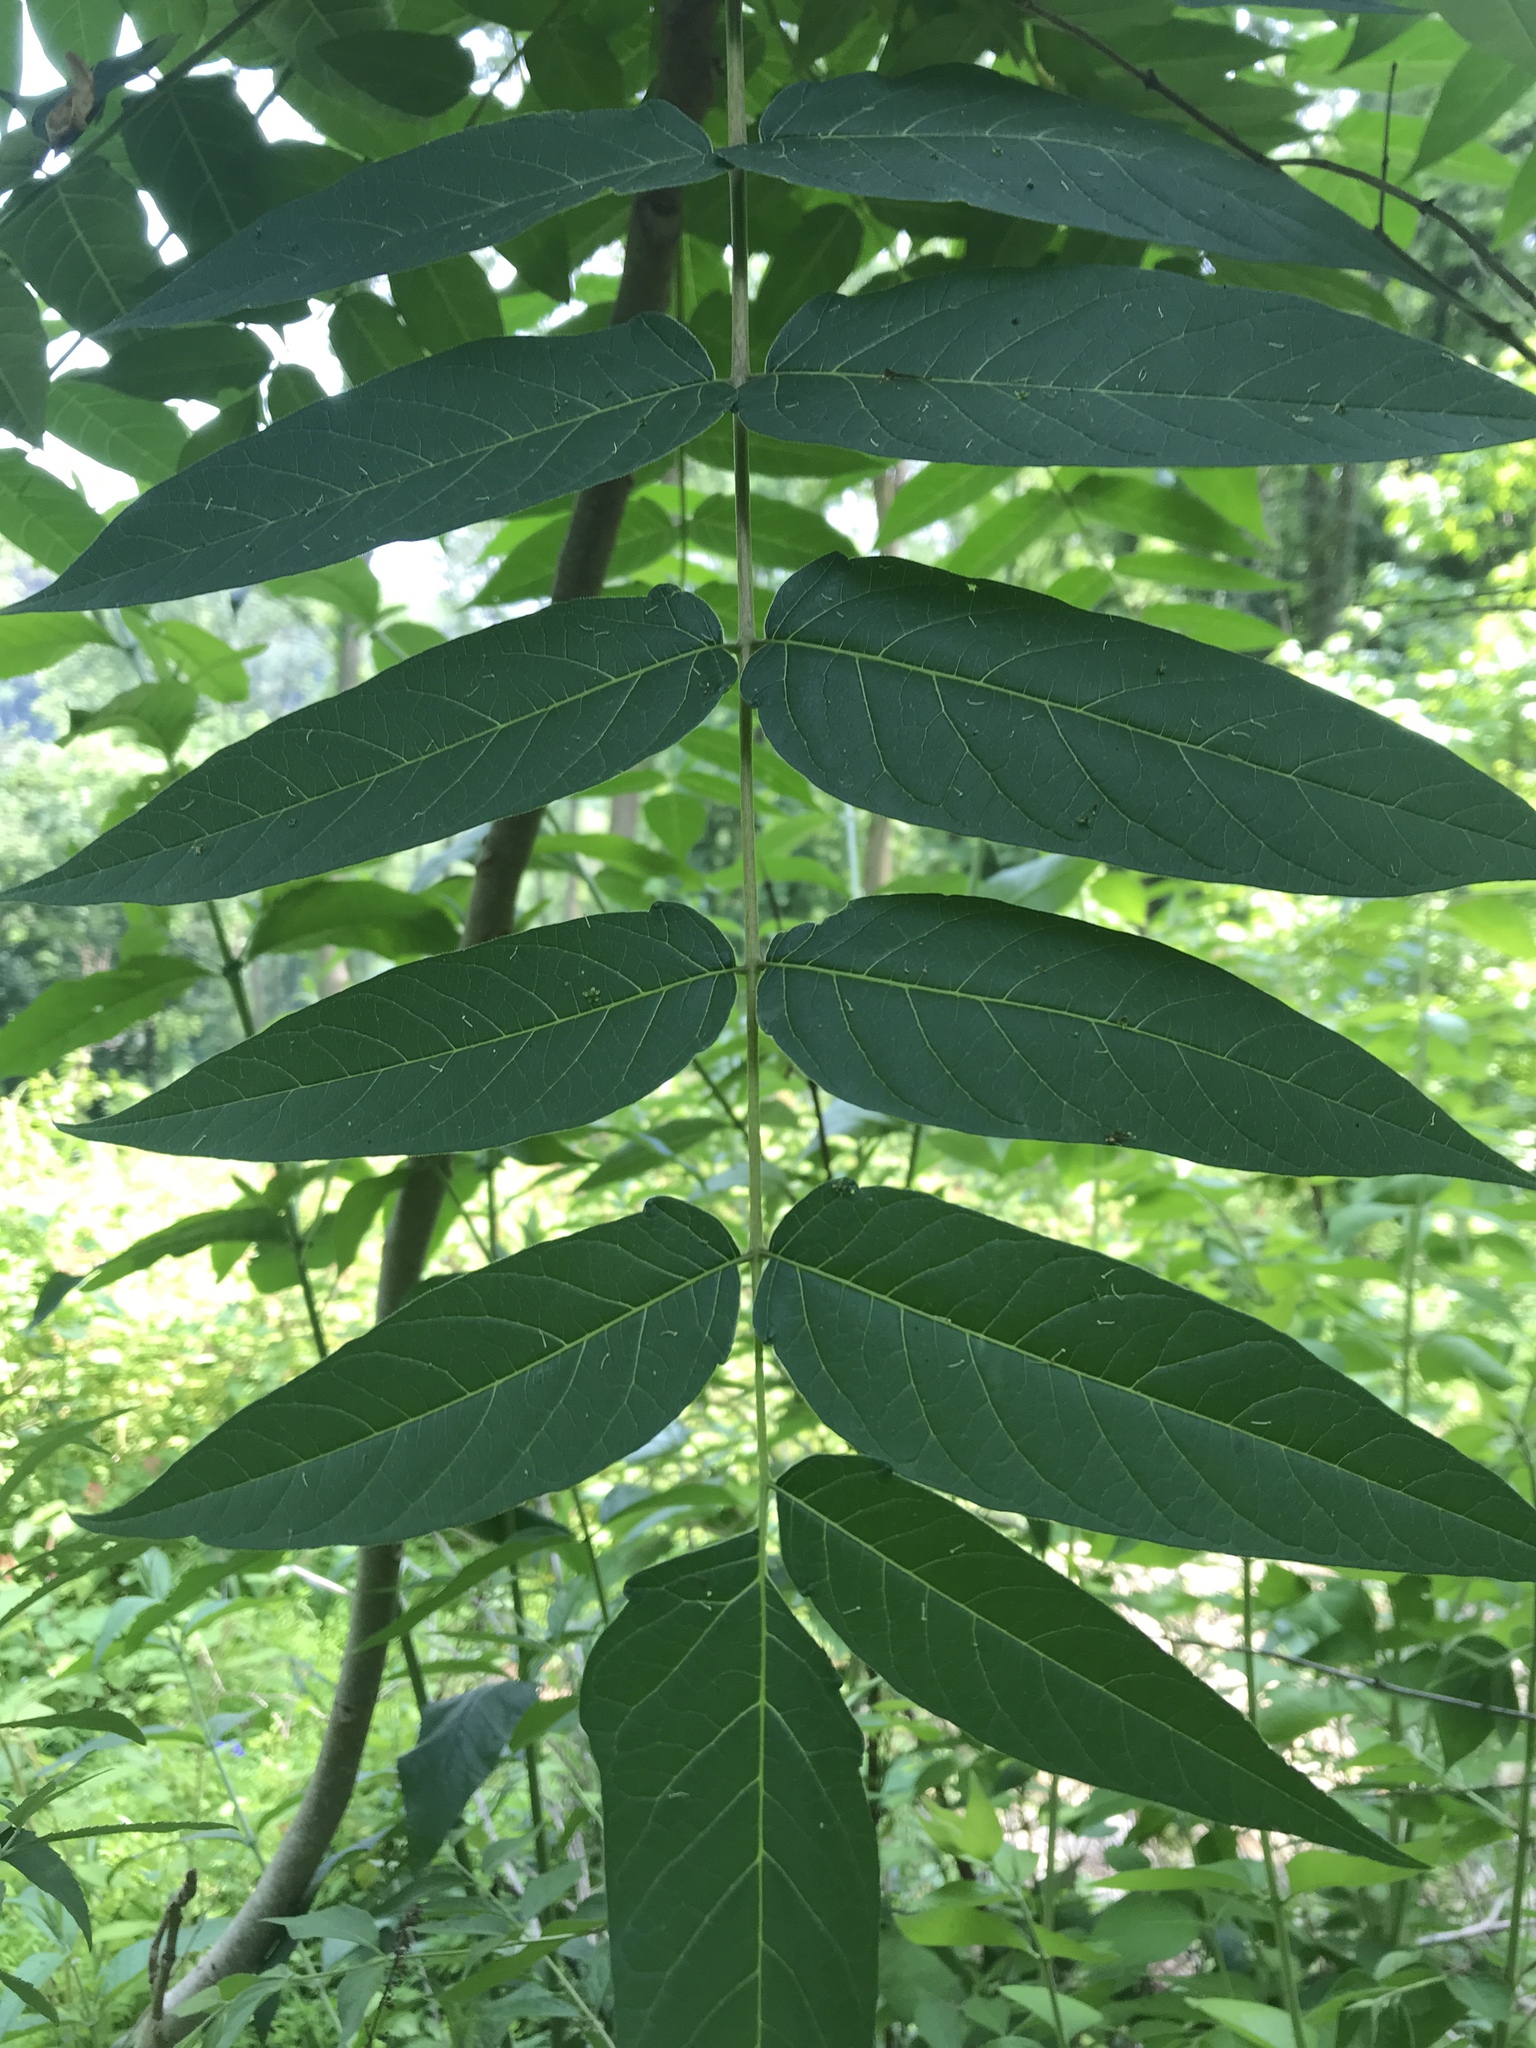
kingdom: Plantae
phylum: Tracheophyta
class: Magnoliopsida
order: Sapindales
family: Simaroubaceae
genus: Ailanthus
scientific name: Ailanthus altissima
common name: Tree-of-heaven
